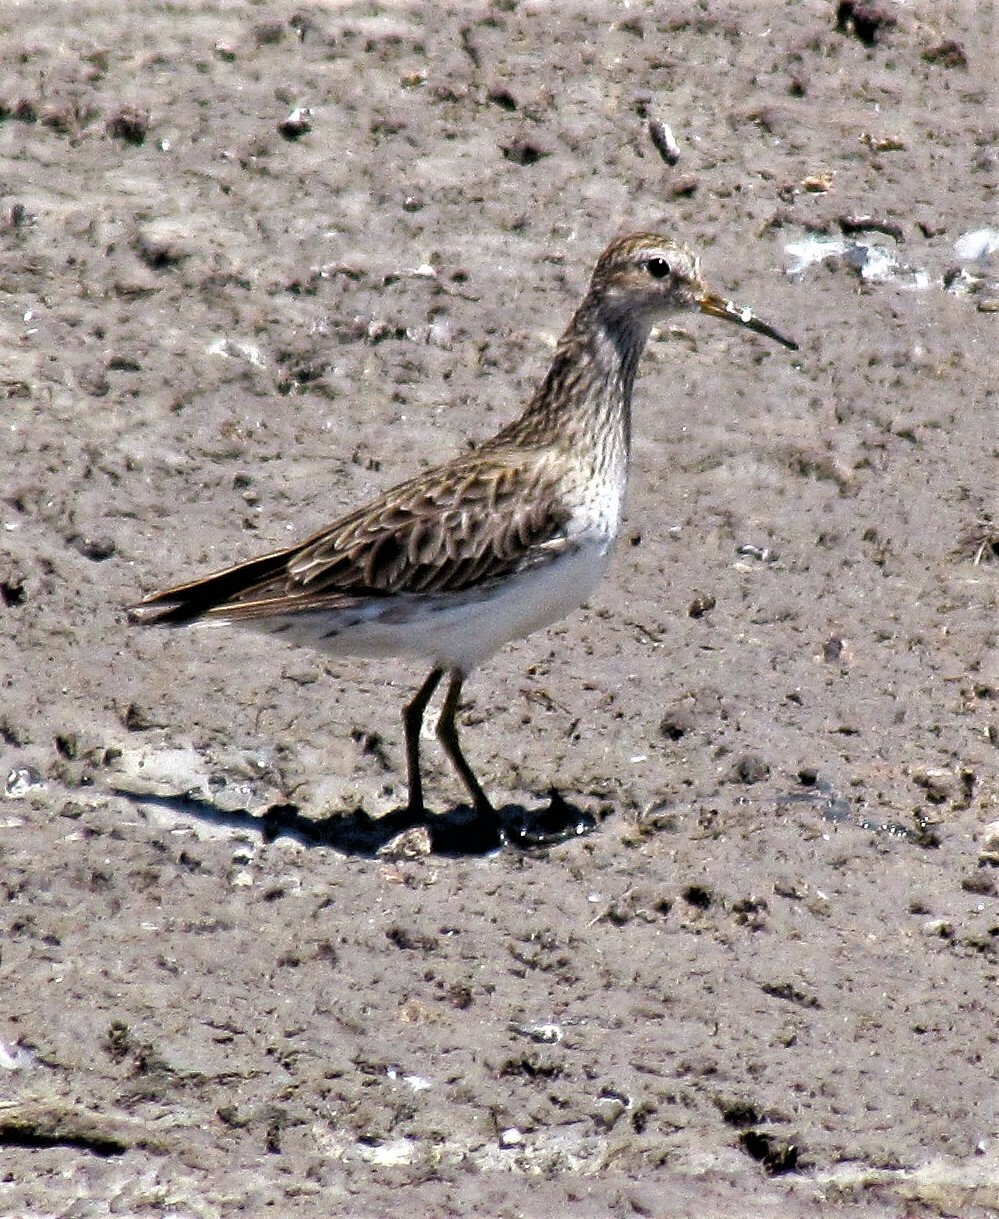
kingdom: Animalia
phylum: Chordata
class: Aves
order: Charadriiformes
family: Scolopacidae
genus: Calidris
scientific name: Calidris melanotos
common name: Pectoral sandpiper
